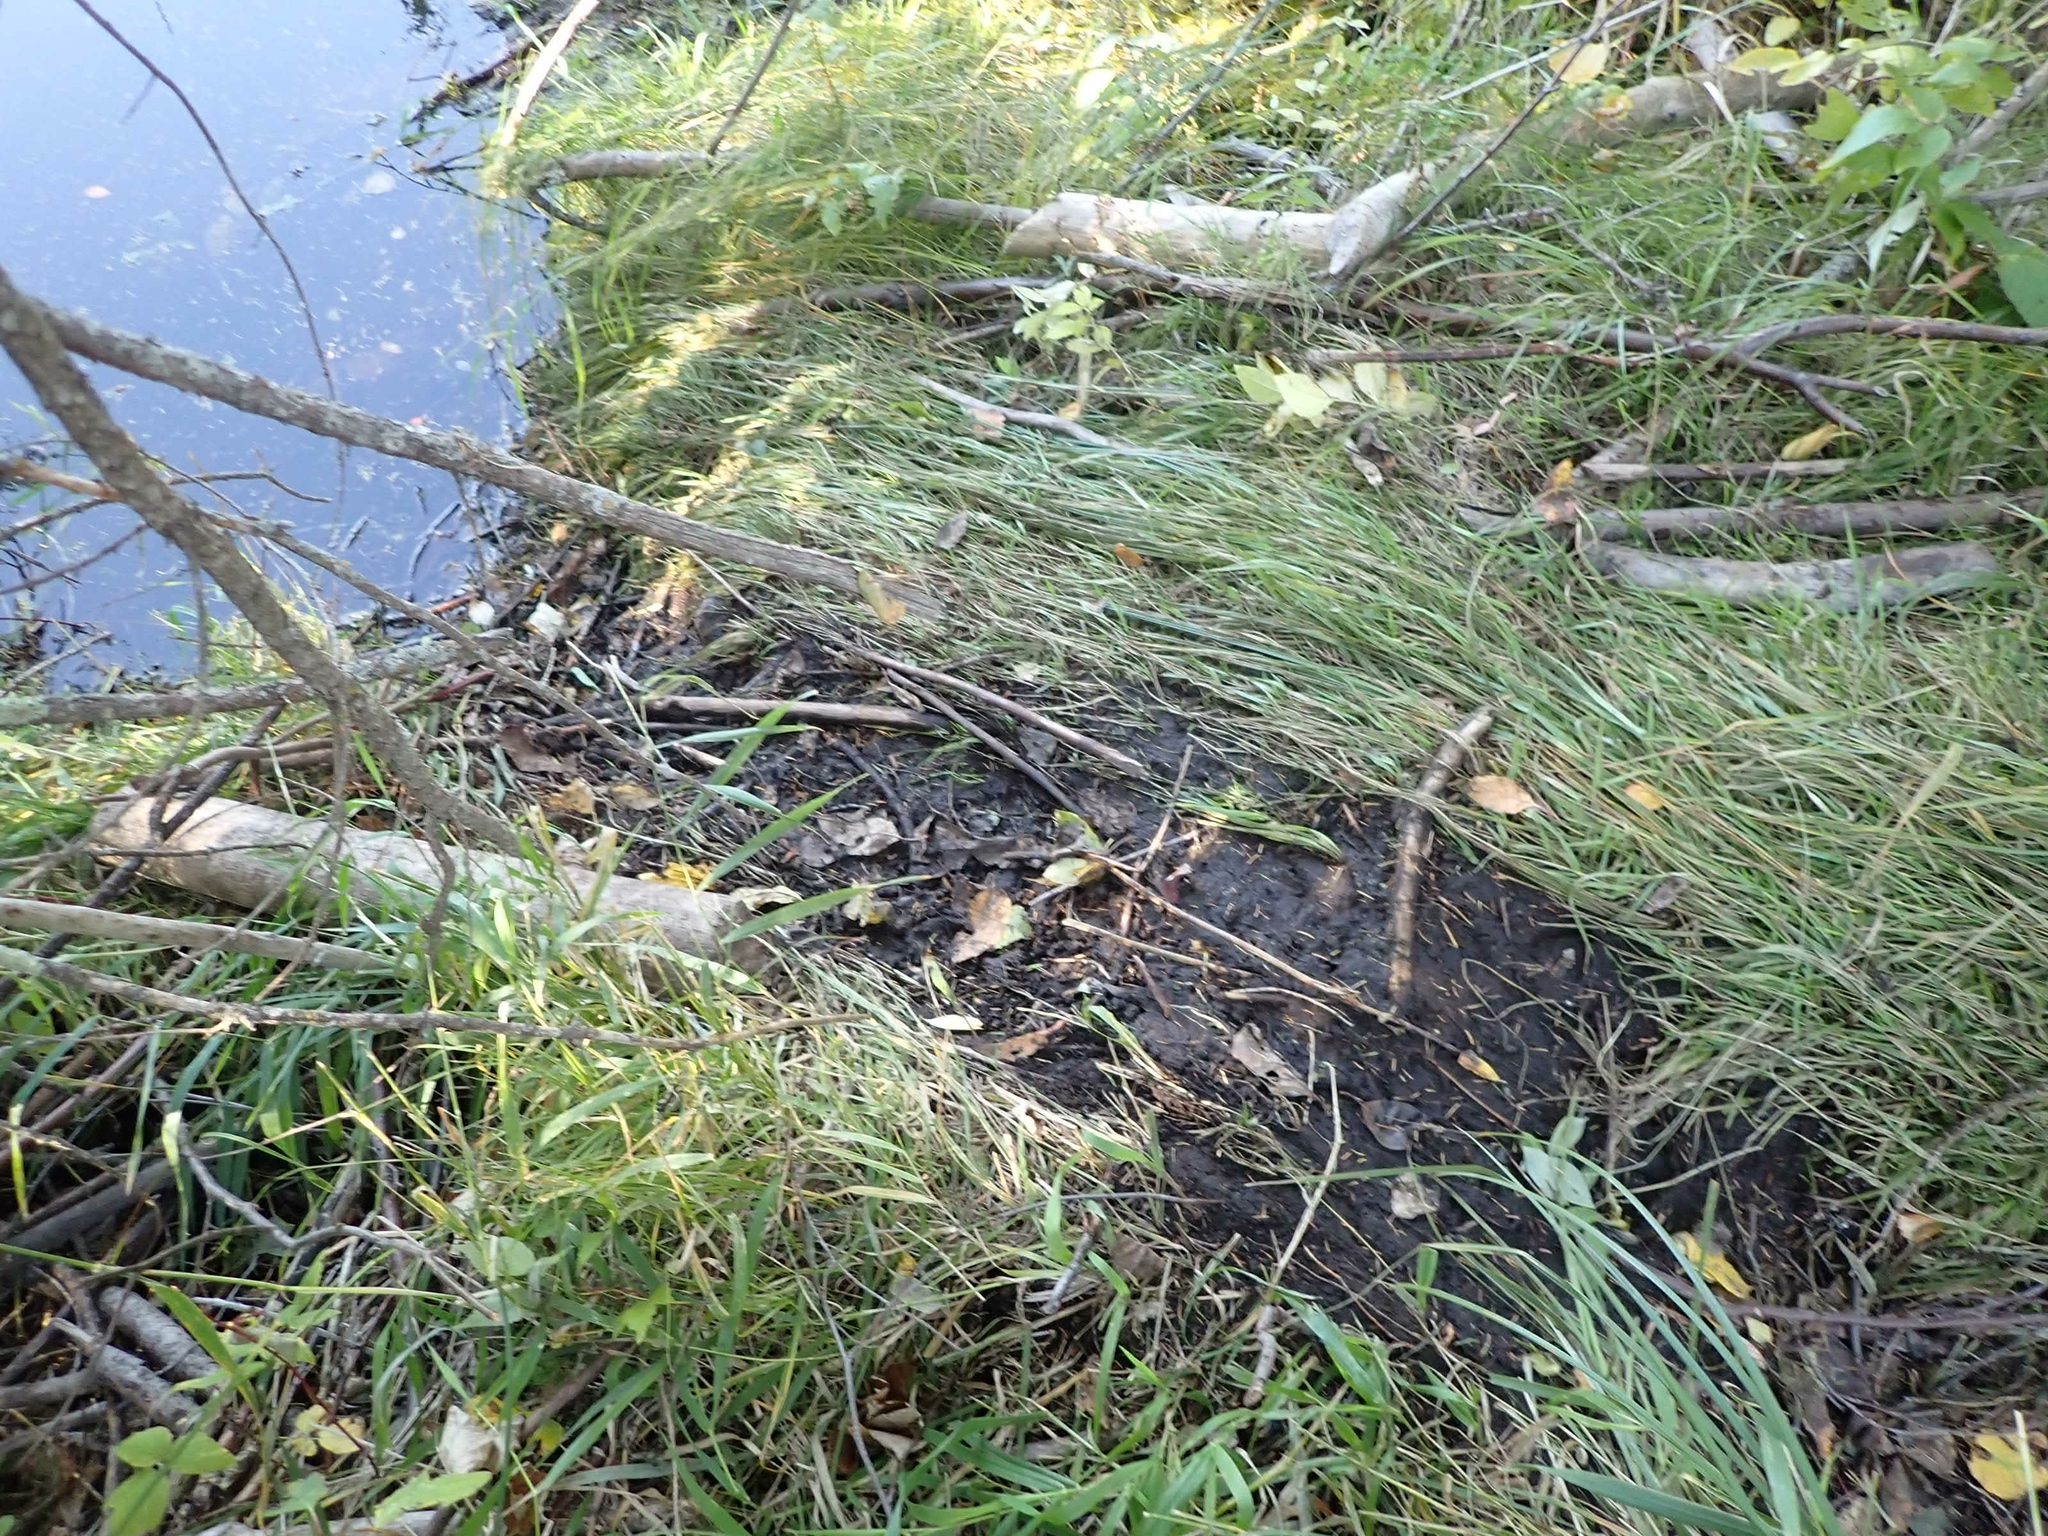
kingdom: Animalia
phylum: Chordata
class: Mammalia
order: Rodentia
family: Castoridae
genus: Castor
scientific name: Castor canadensis
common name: American beaver
